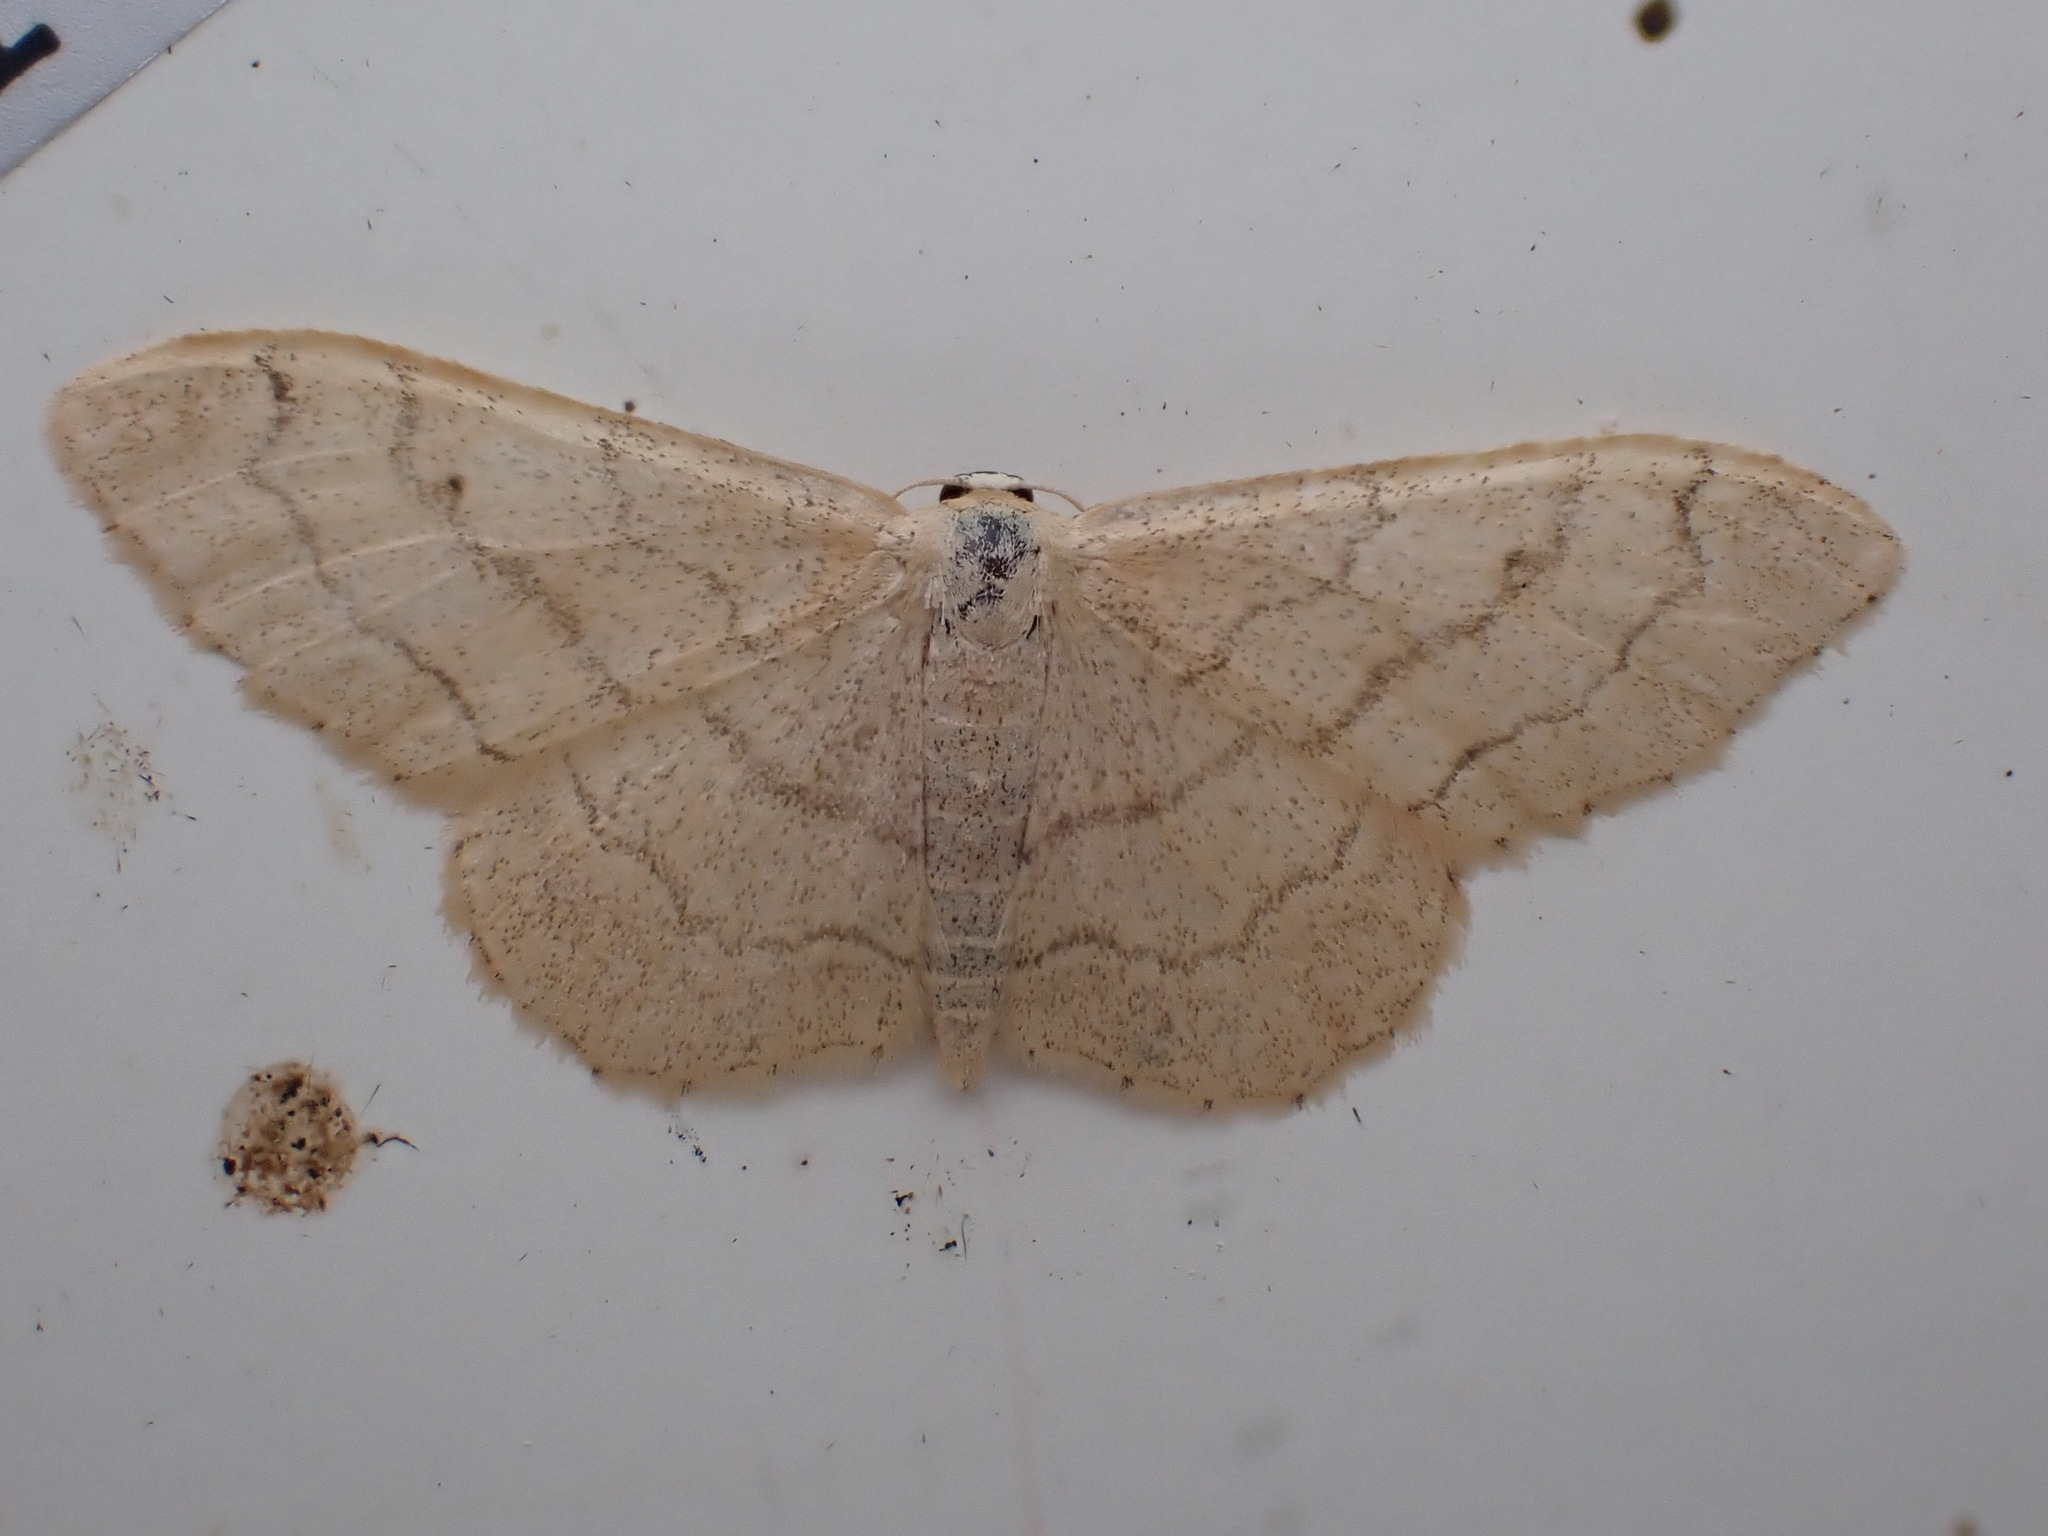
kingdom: Animalia
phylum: Arthropoda
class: Insecta
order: Lepidoptera
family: Geometridae
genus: Idaea
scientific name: Idaea aversata
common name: Riband wave
